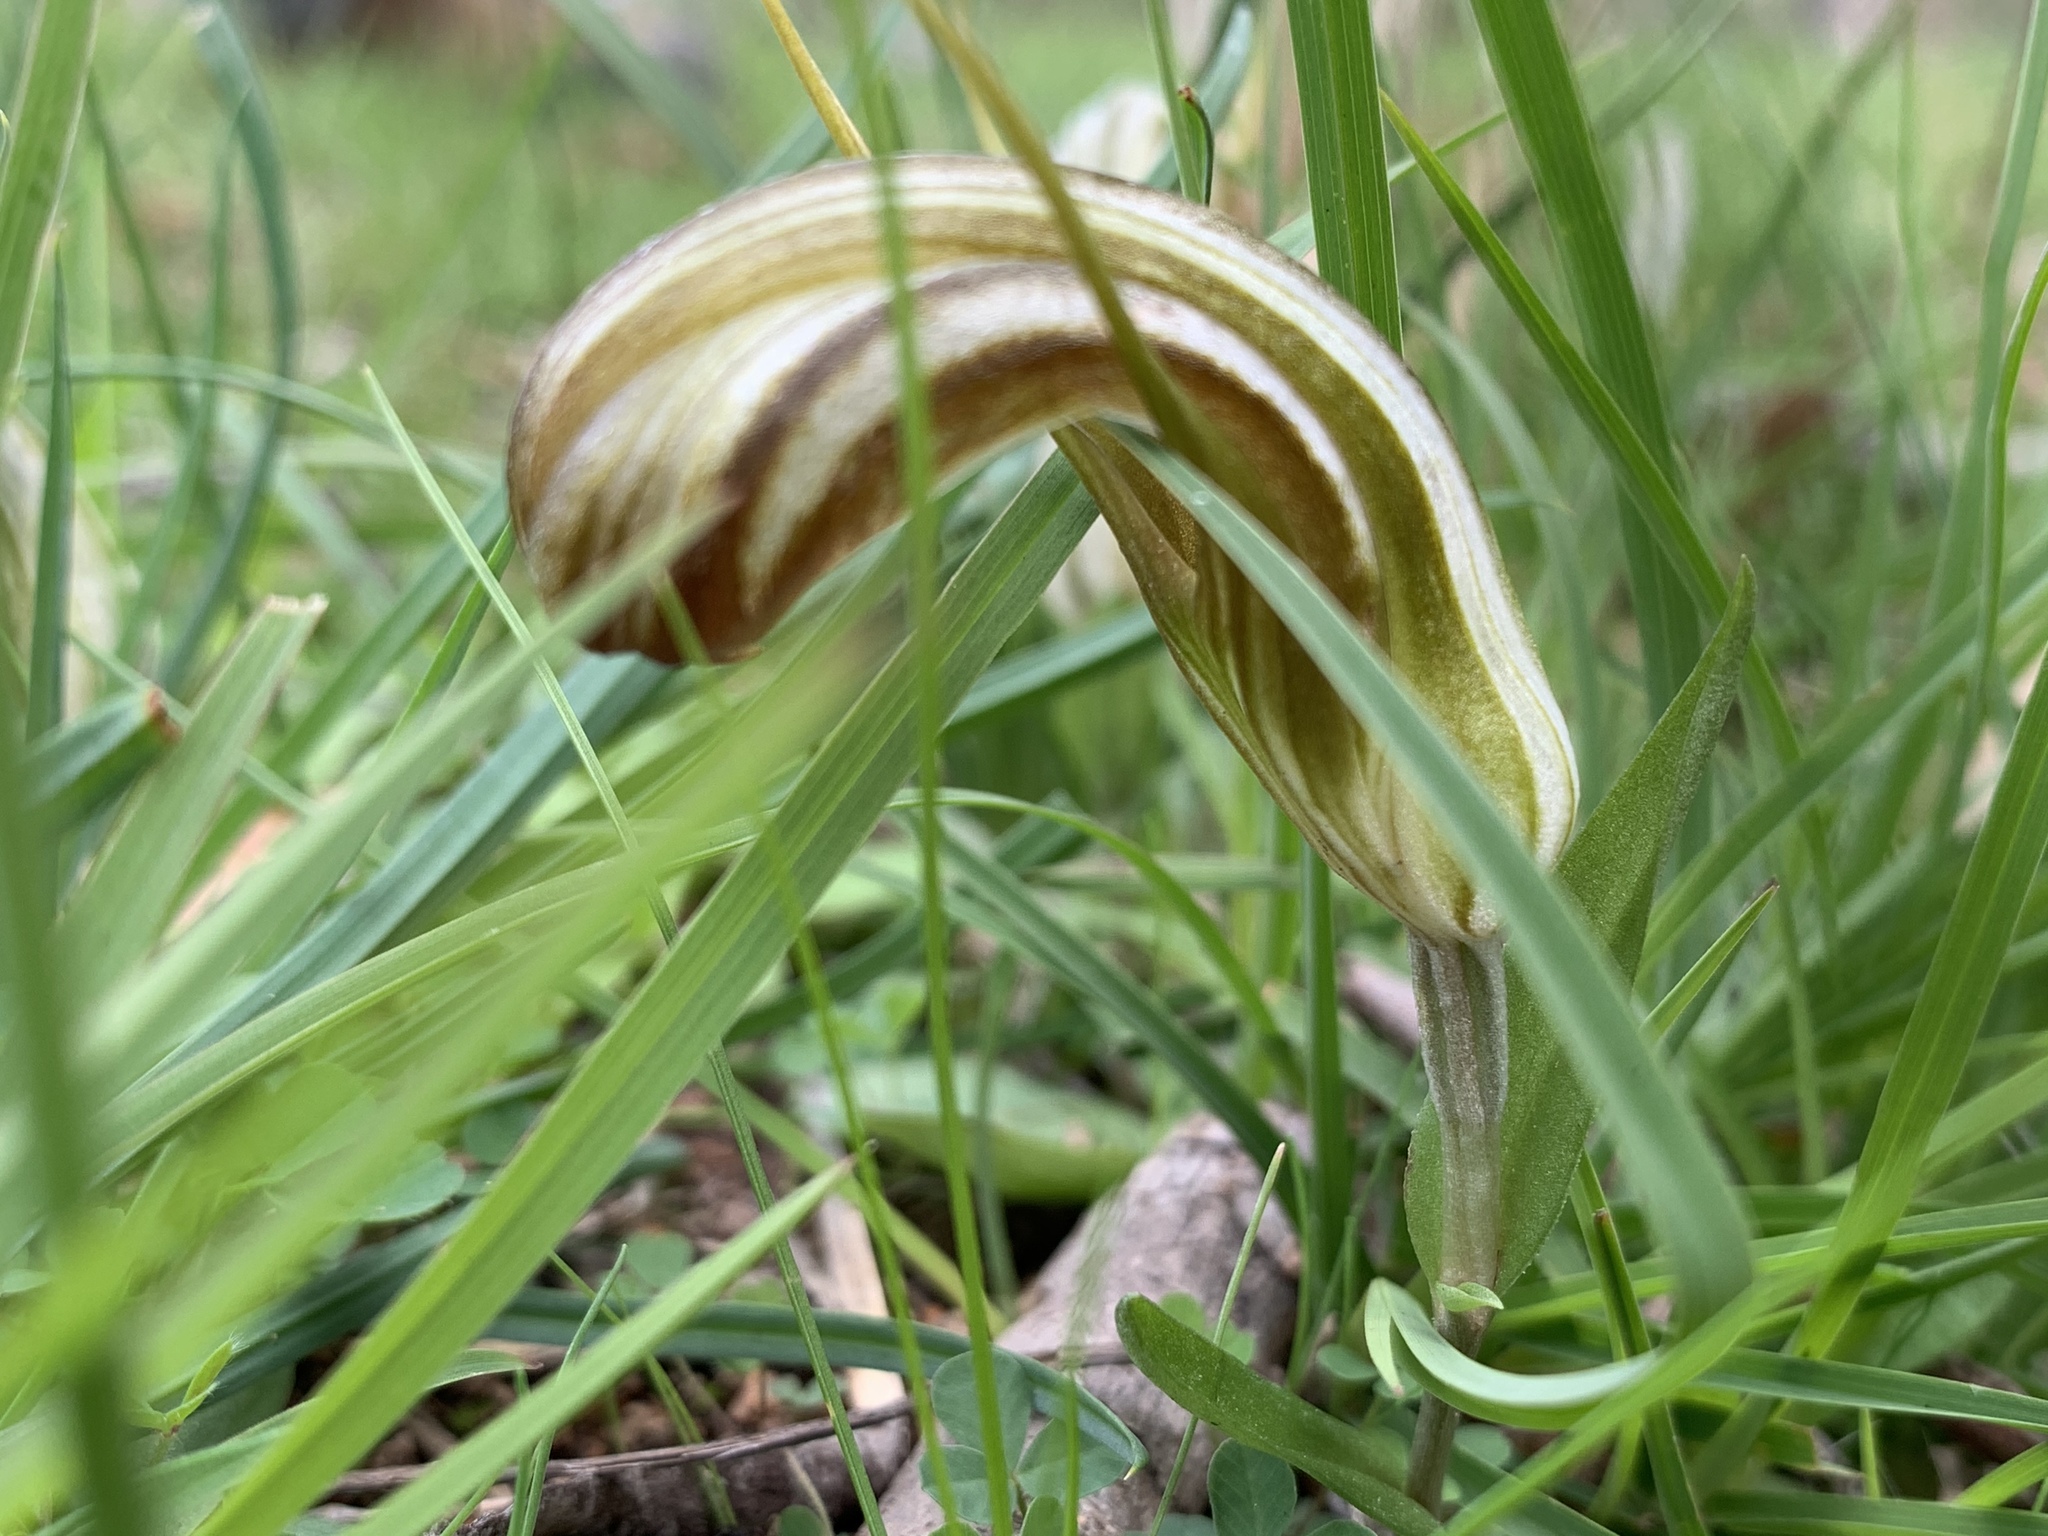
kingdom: Plantae
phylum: Tracheophyta
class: Liliopsida
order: Asparagales
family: Orchidaceae
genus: Pterostylis
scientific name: Pterostylis truncata
